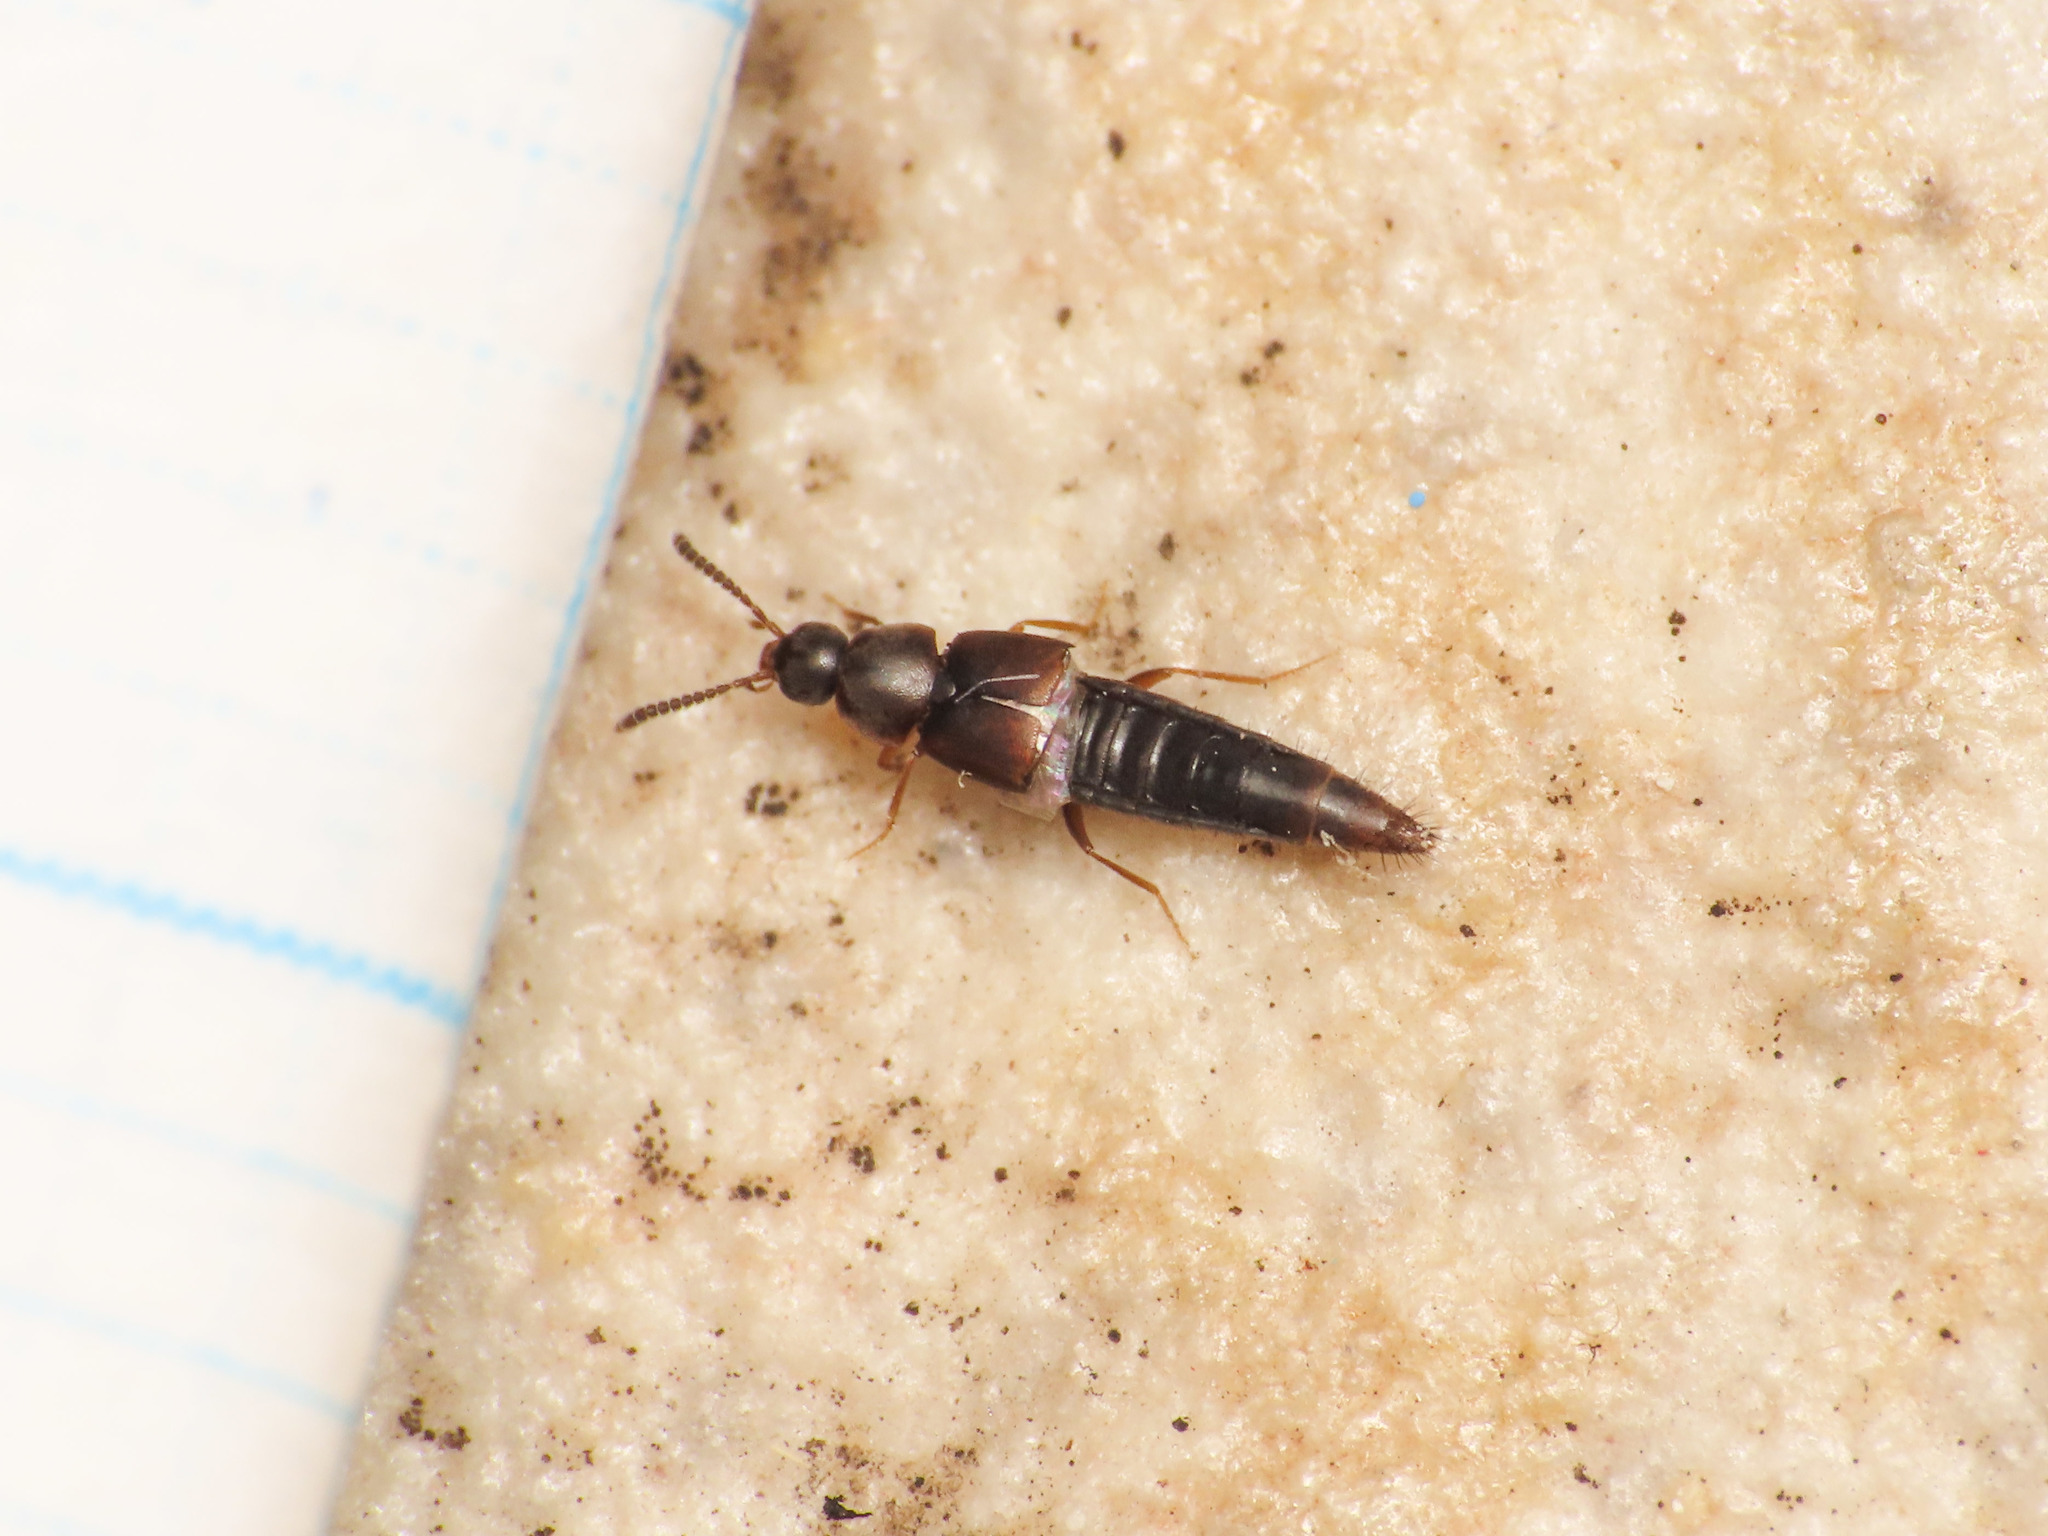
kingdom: Animalia
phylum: Arthropoda
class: Insecta
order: Coleoptera
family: Staphylinidae
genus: Oxypoda
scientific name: Oxypoda acuminata
